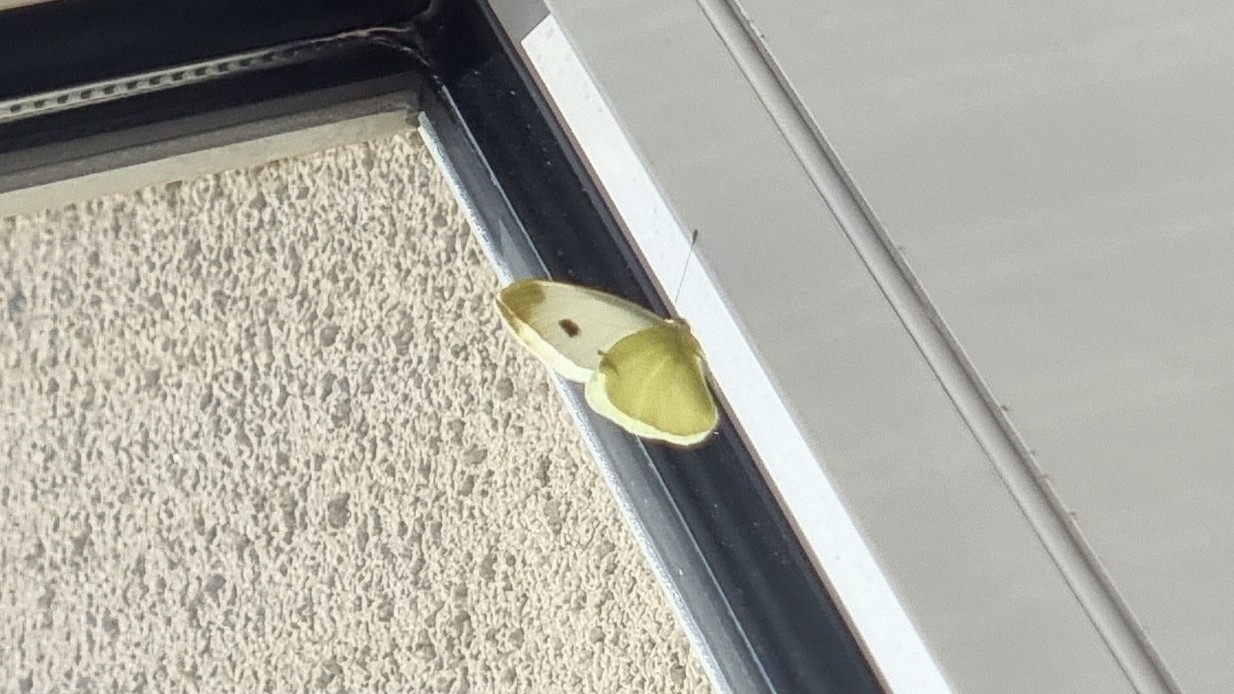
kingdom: Animalia
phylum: Arthropoda
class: Insecta
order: Lepidoptera
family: Pieridae
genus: Pieris
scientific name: Pieris mannii
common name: Southern small white
